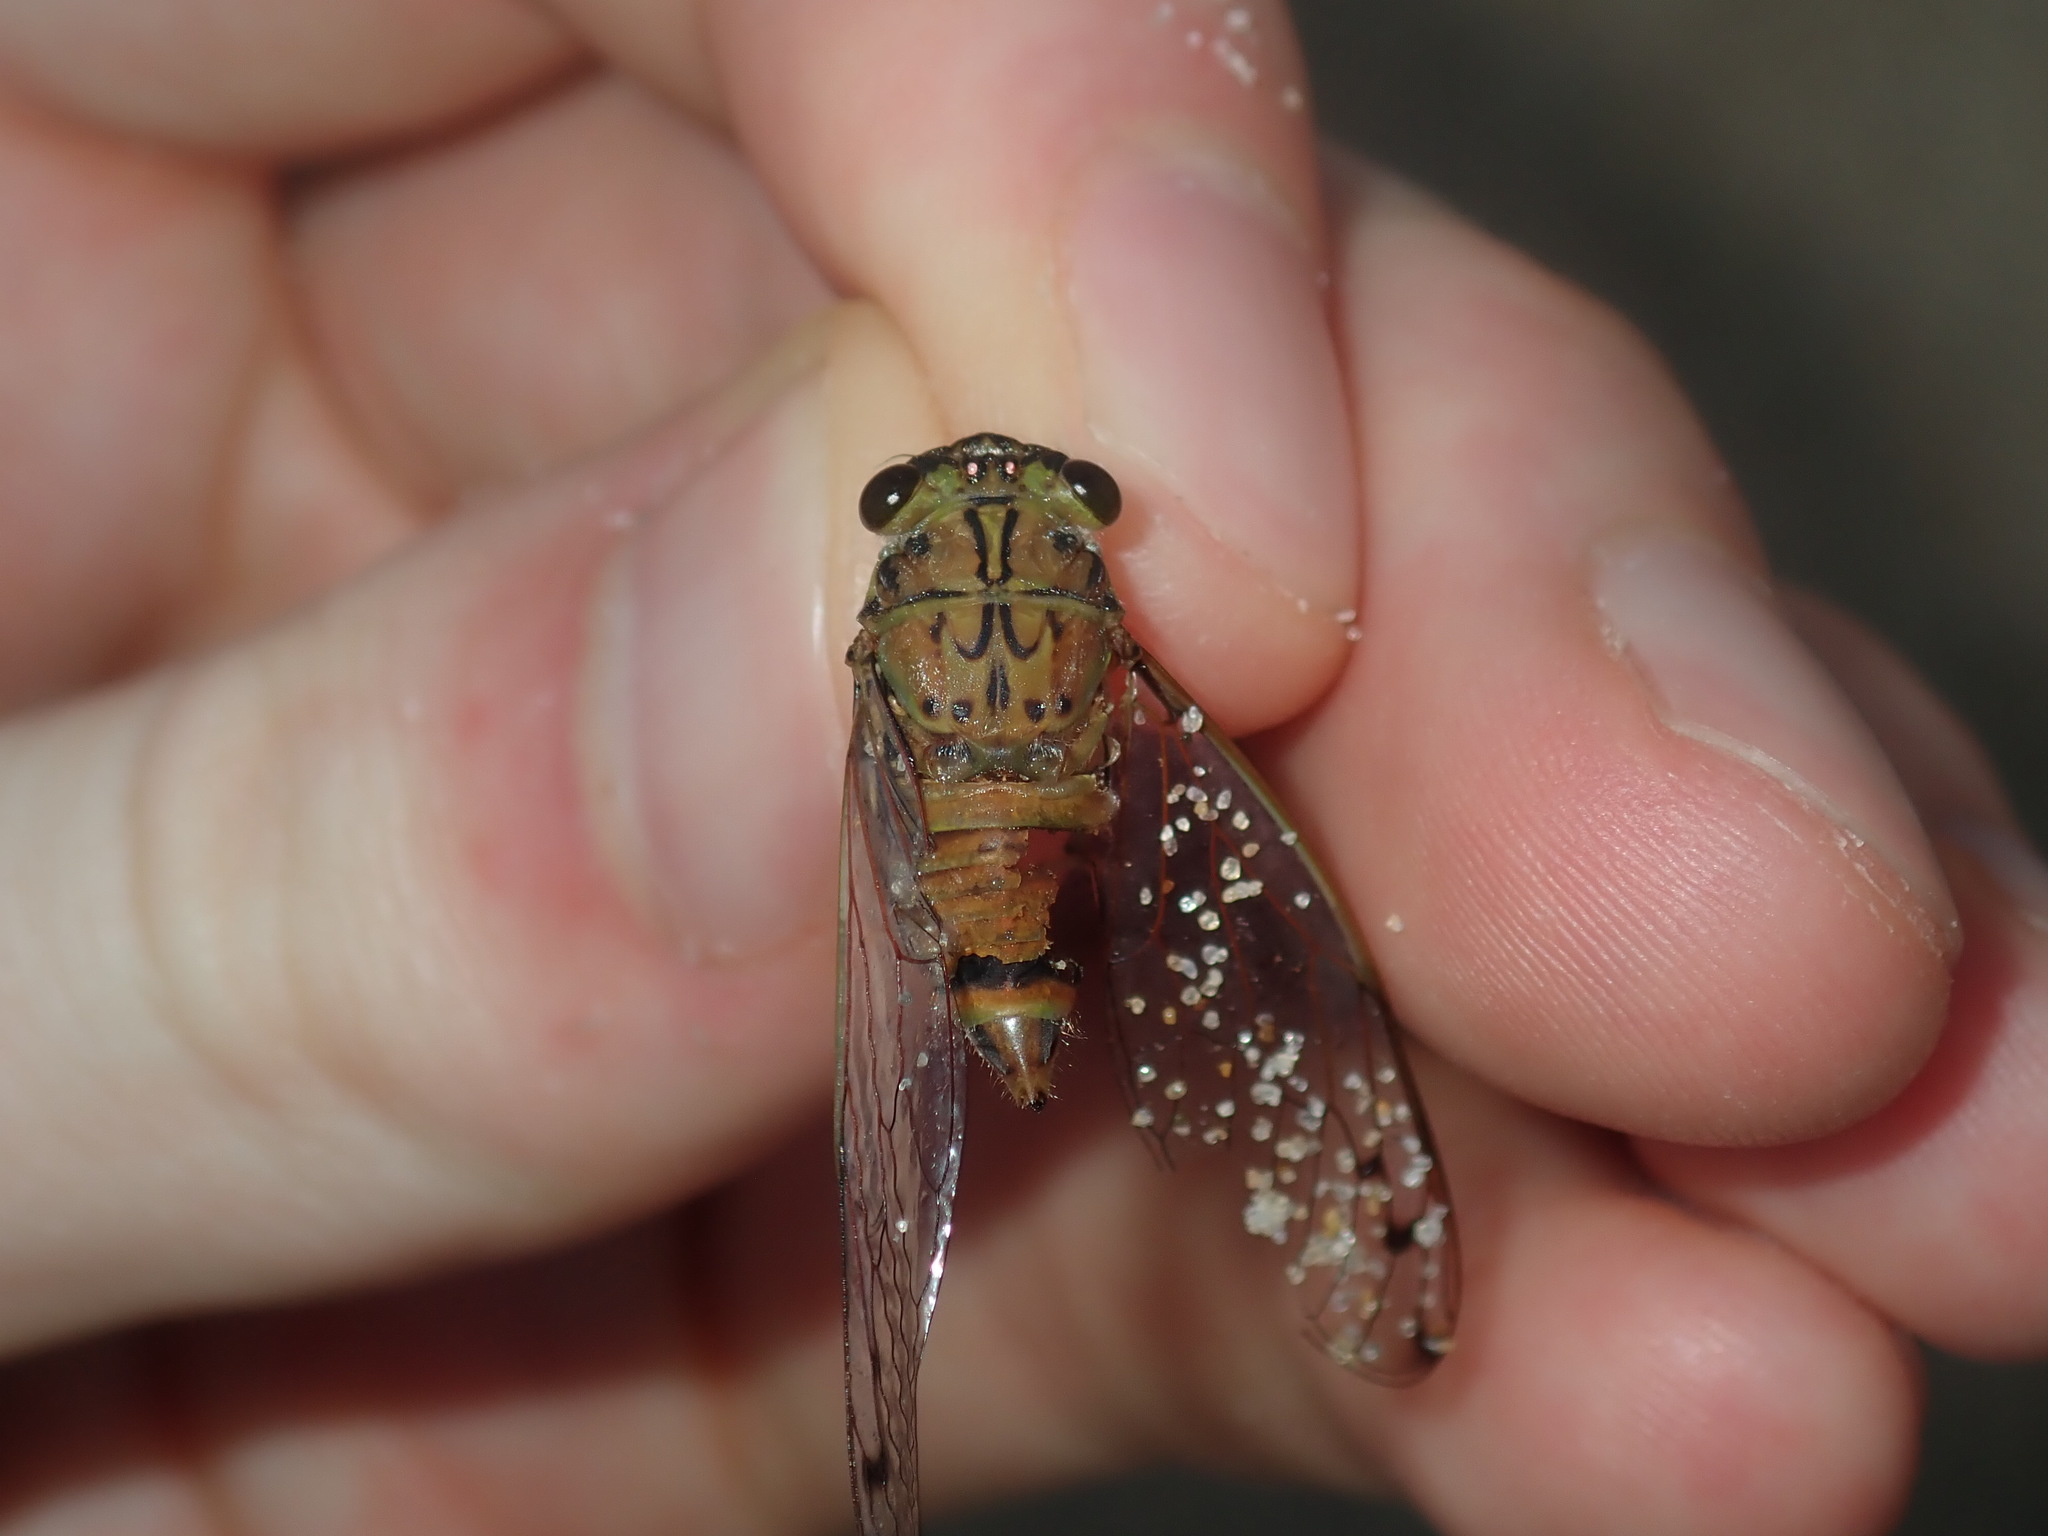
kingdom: Animalia
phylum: Arthropoda
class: Insecta
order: Hemiptera
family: Cicadidae
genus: Tamasa
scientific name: Tamasa tristigma
